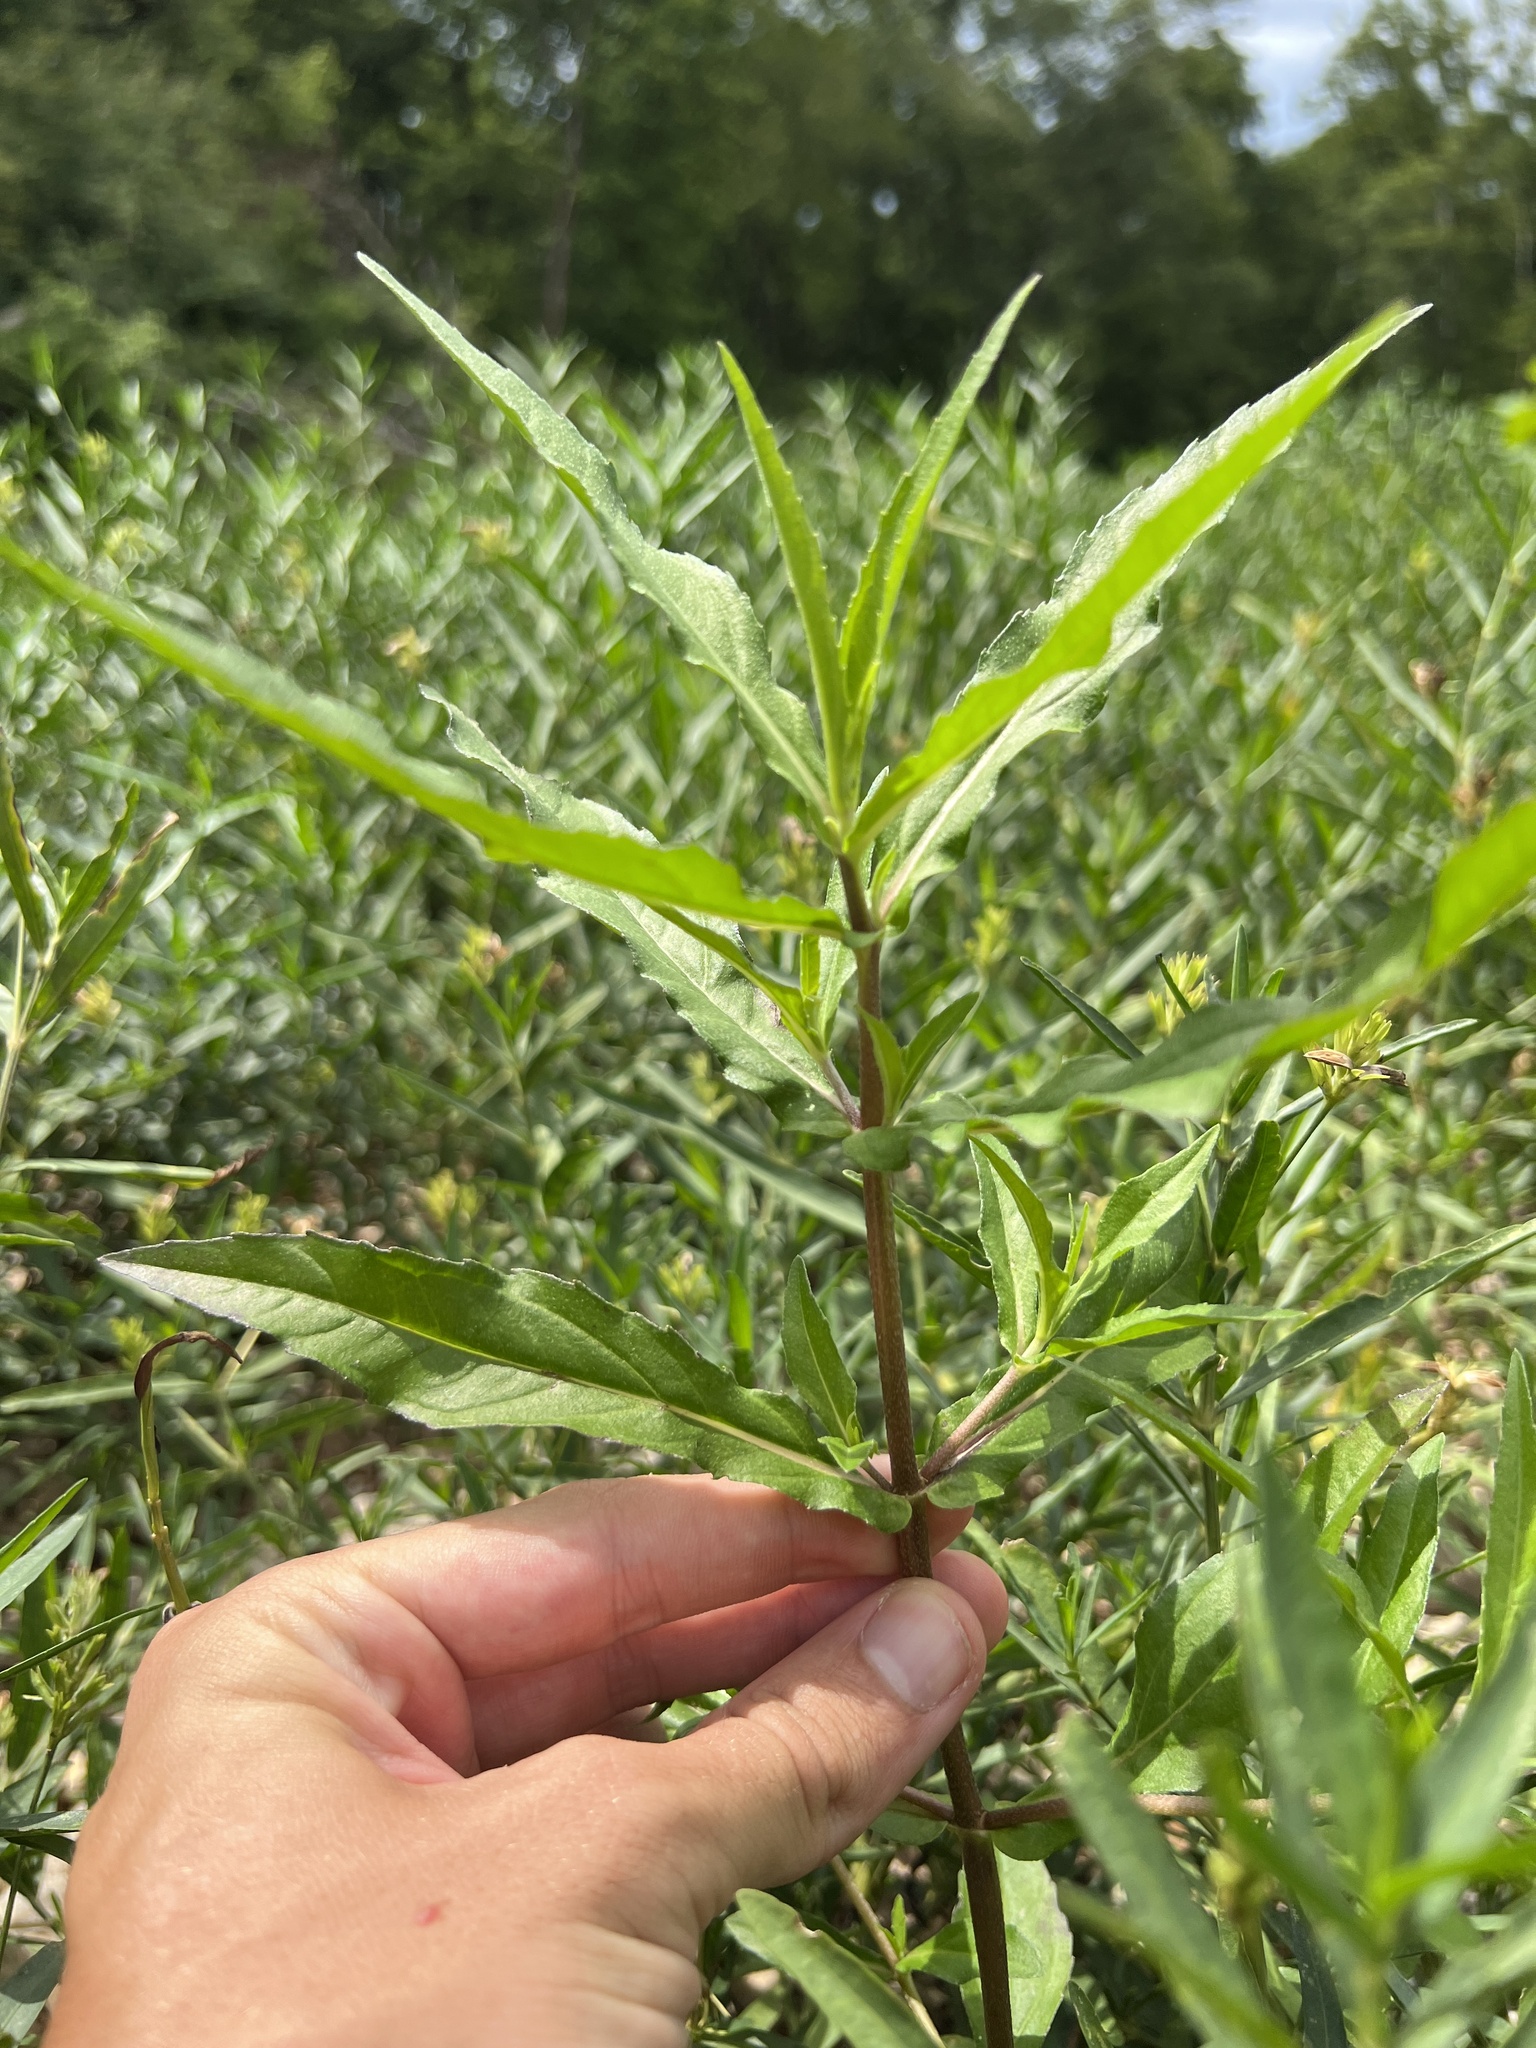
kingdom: Plantae
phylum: Tracheophyta
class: Magnoliopsida
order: Asterales
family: Asteraceae
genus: Eclipta
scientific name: Eclipta prostrata
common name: False daisy
